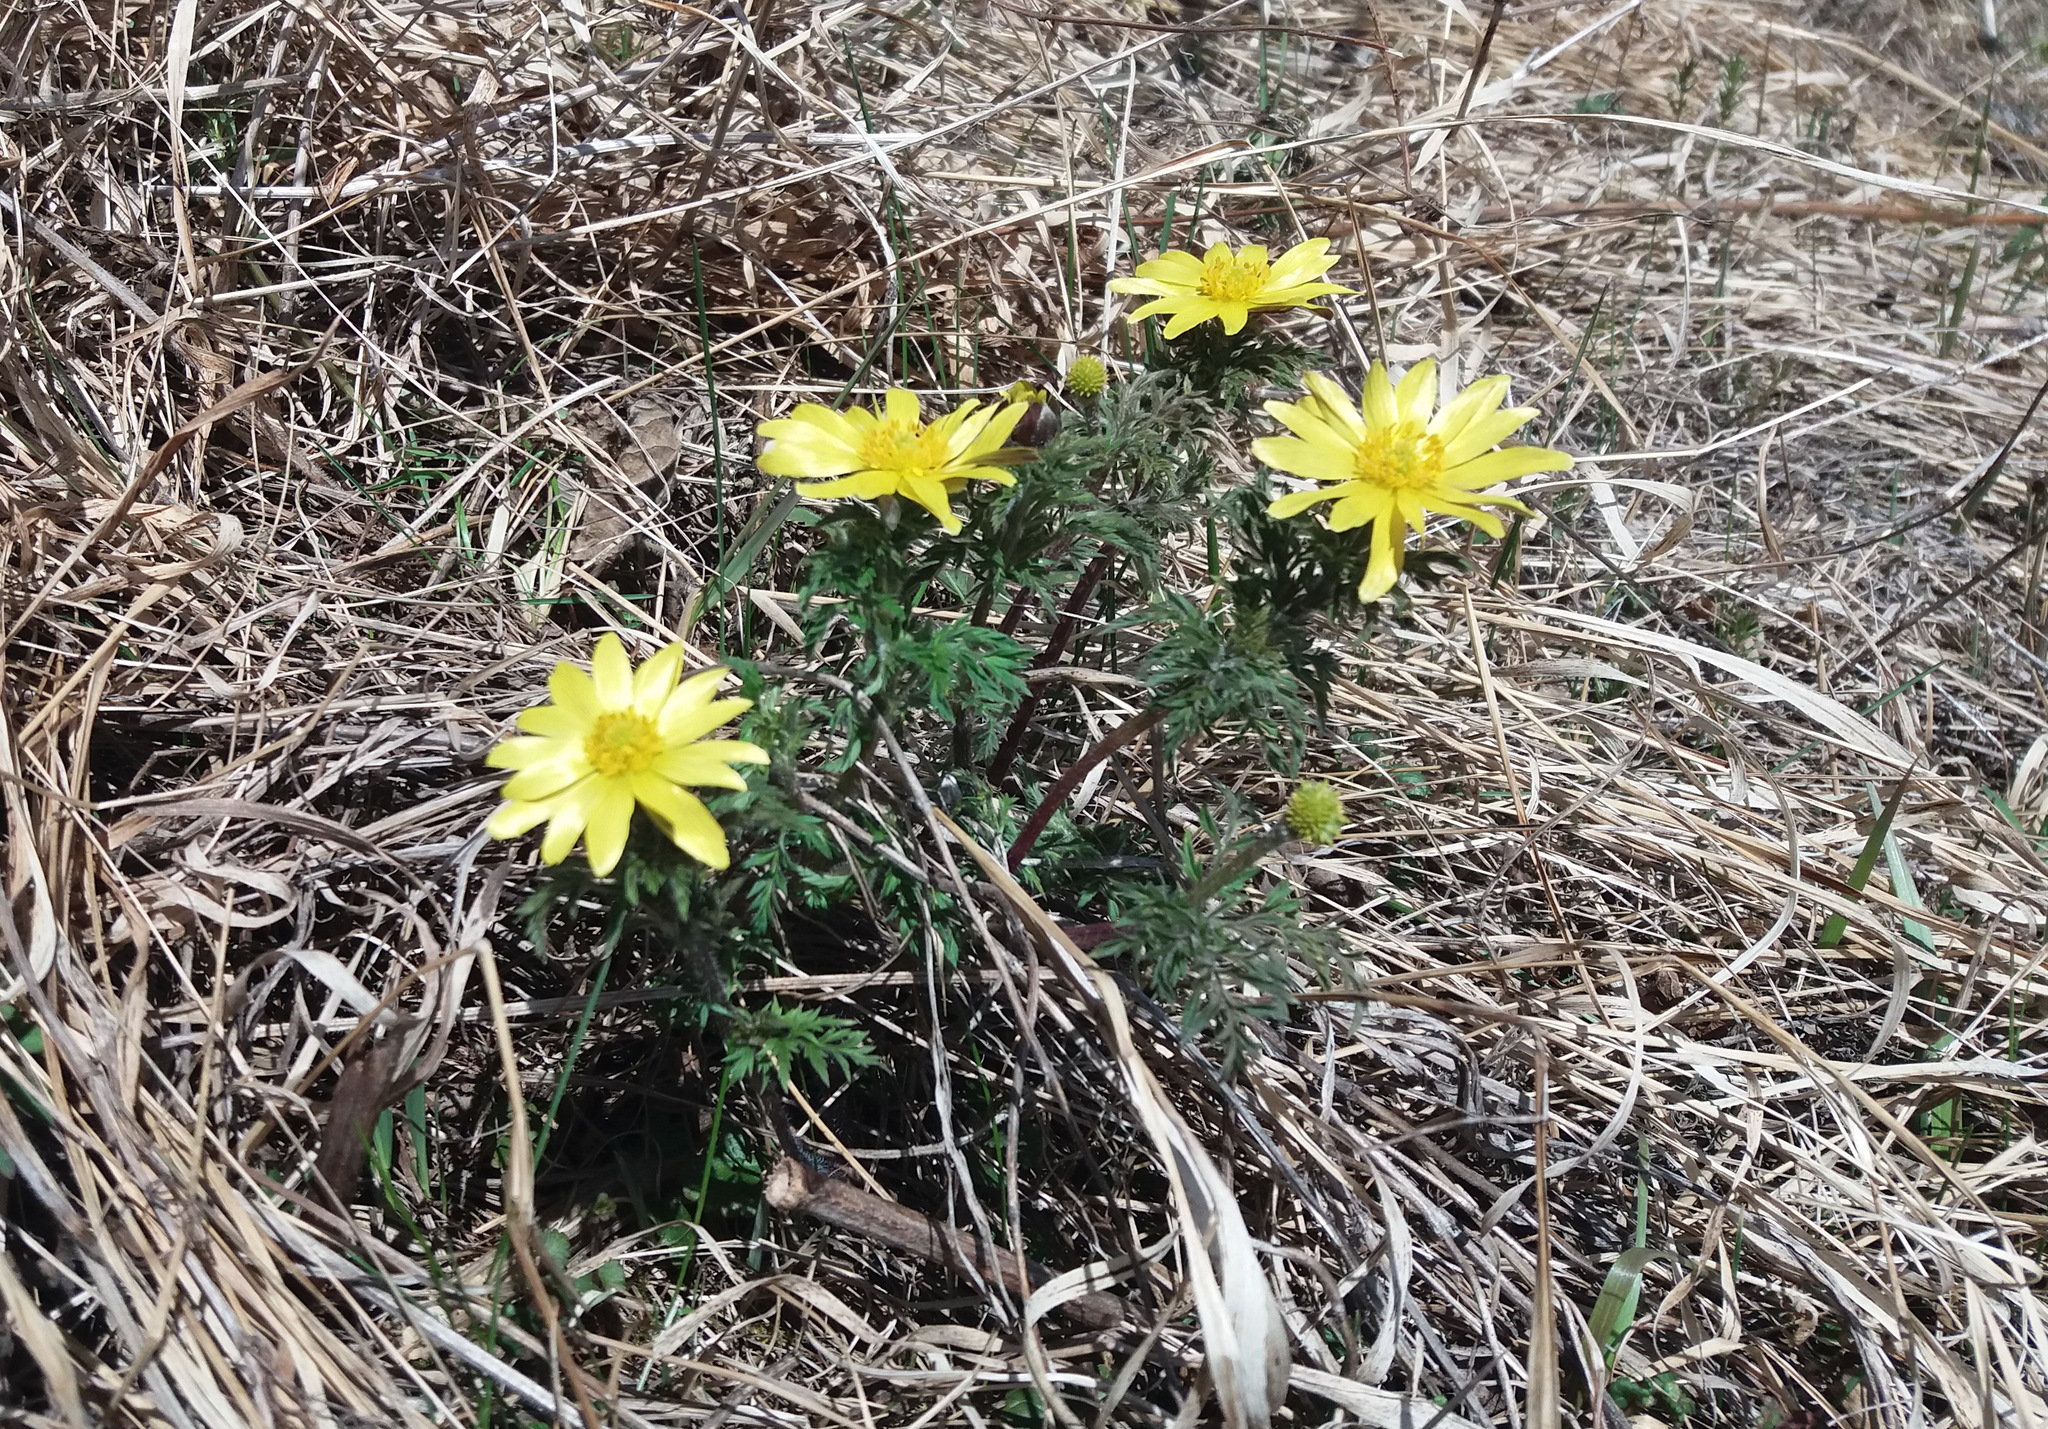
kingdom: Plantae
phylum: Tracheophyta
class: Magnoliopsida
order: Ranunculales
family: Ranunculaceae
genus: Adonis
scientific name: Adonis
